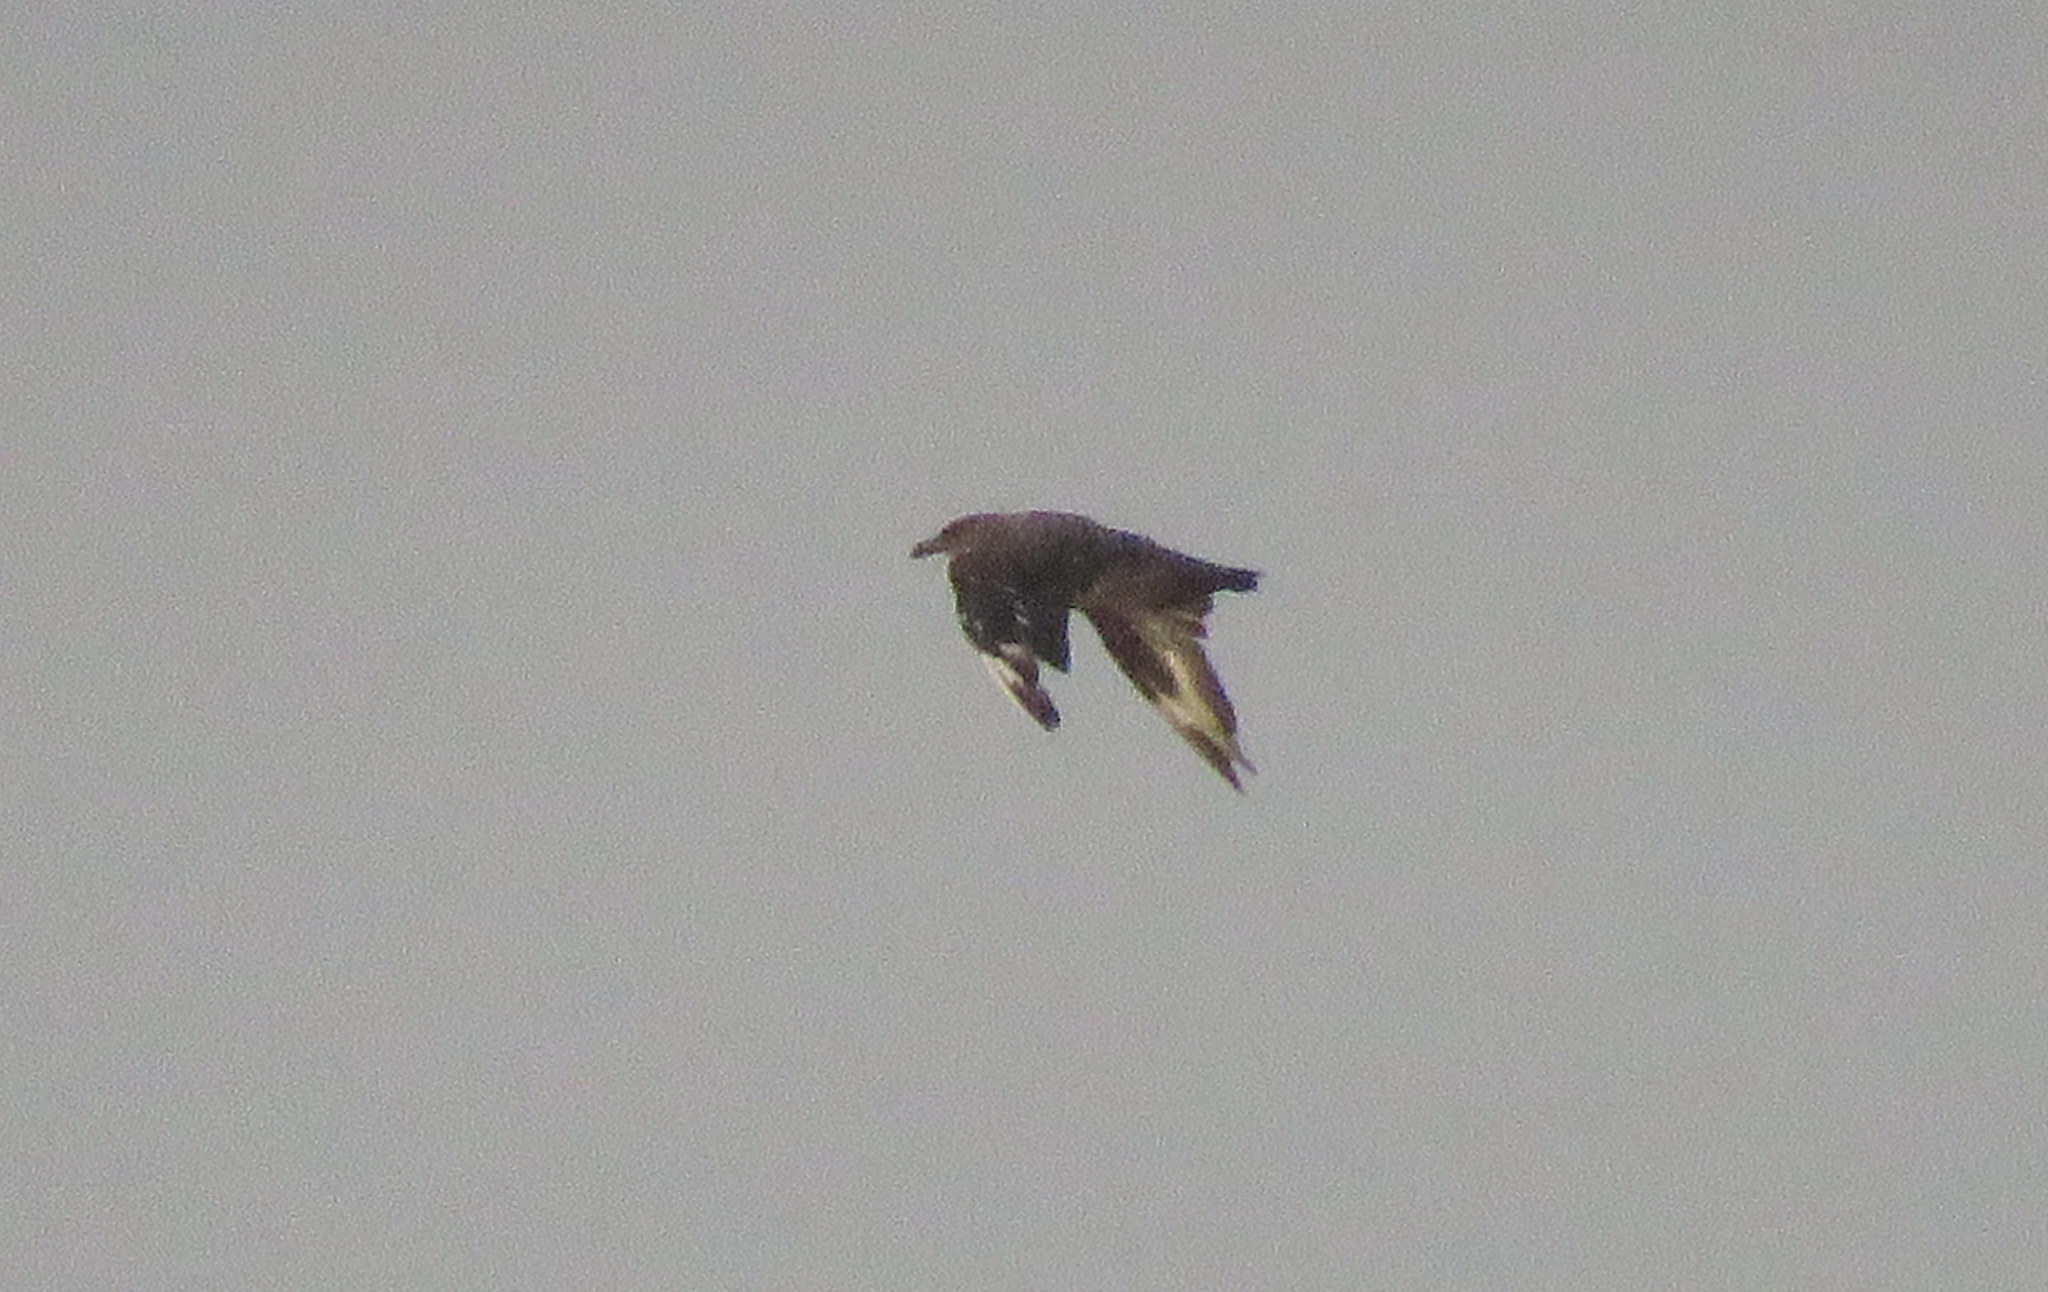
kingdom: Animalia
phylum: Chordata
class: Aves
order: Charadriiformes
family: Stercorariidae
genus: Stercorarius
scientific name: Stercorarius chilensis
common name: Chilean skua
